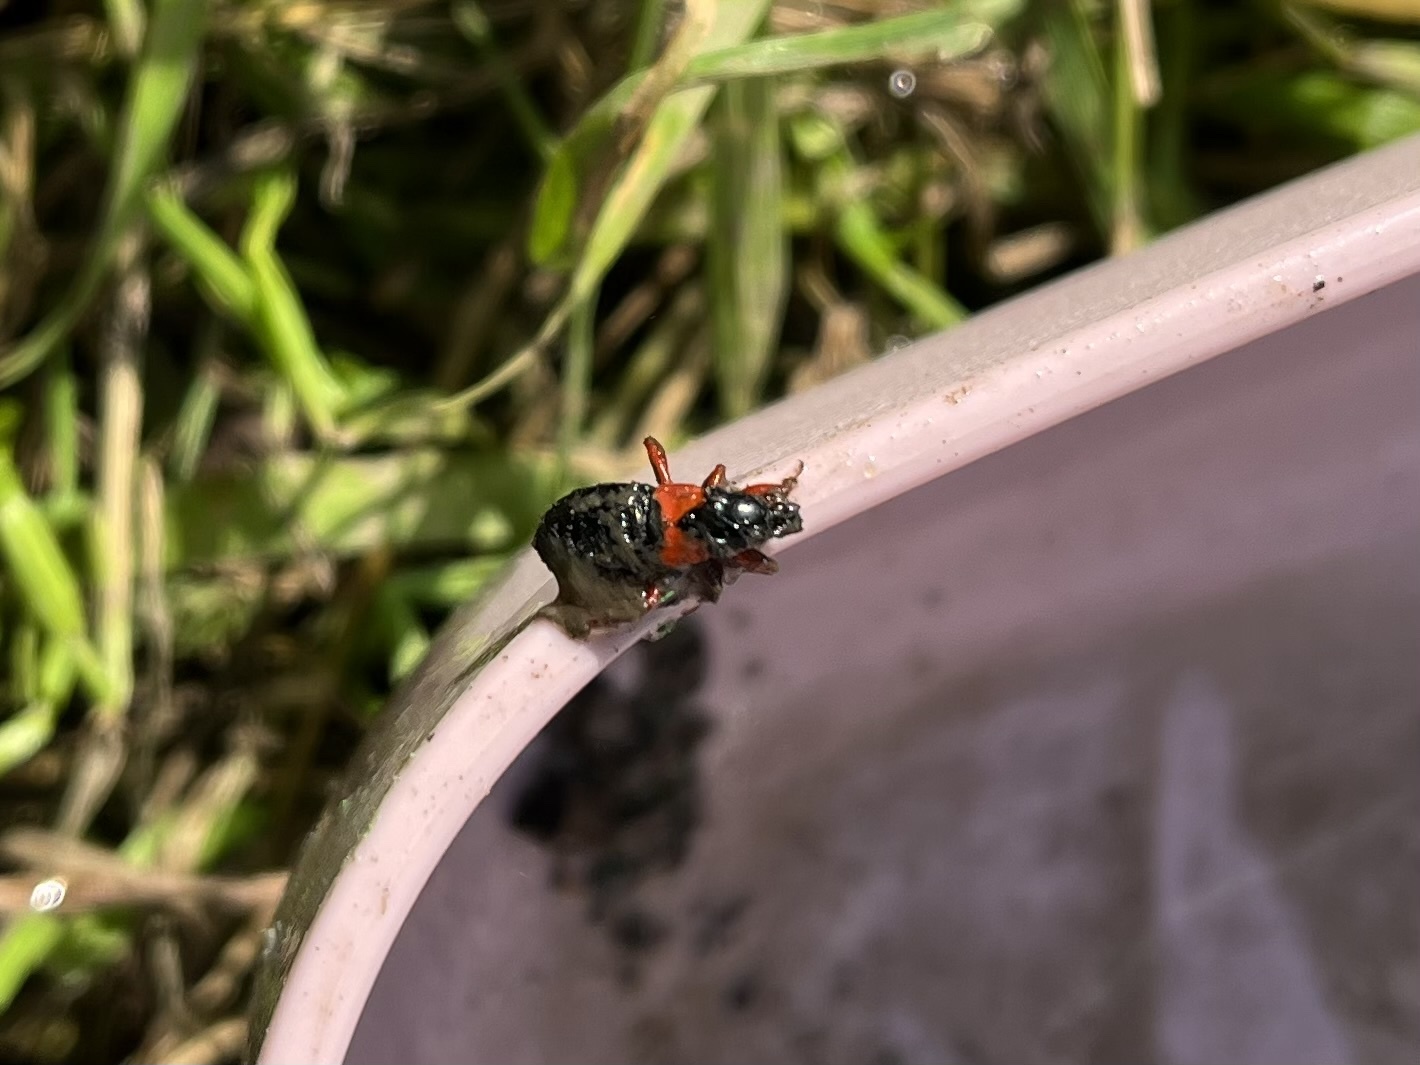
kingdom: Animalia
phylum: Arthropoda
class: Insecta
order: Hemiptera
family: Nabidae
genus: Prostemma
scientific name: Prostemma guttula
